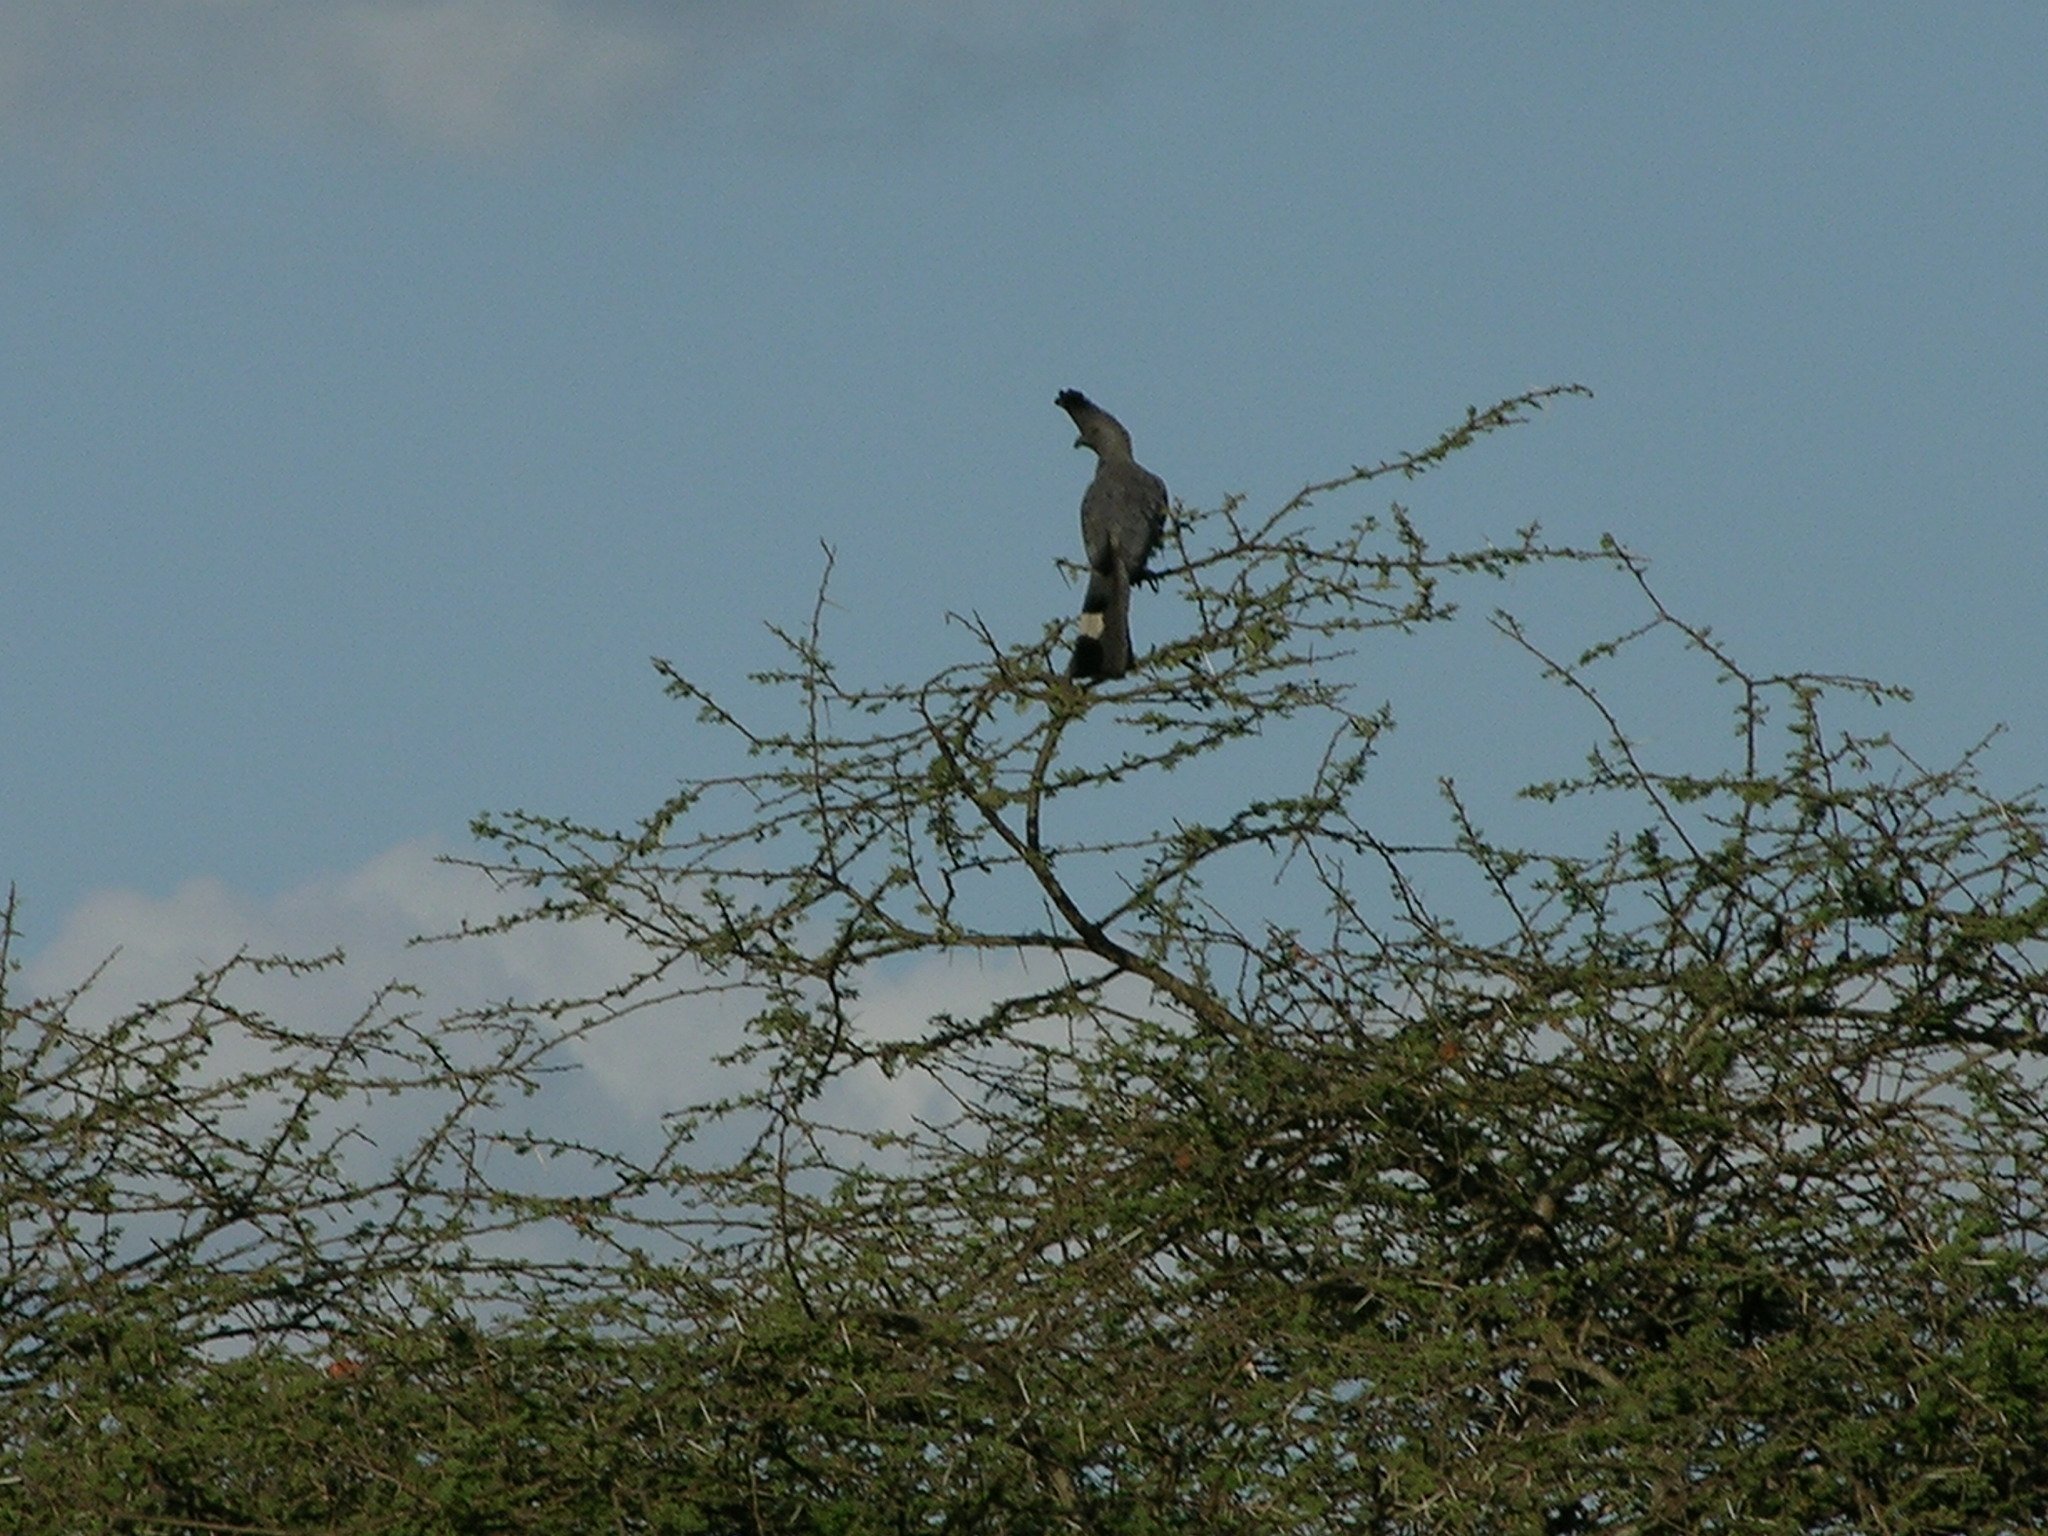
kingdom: Animalia
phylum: Chordata
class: Aves
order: Musophagiformes
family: Musophagidae
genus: Corythaixoides
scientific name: Corythaixoides leucogaster
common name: White-bellied go-away-bird
